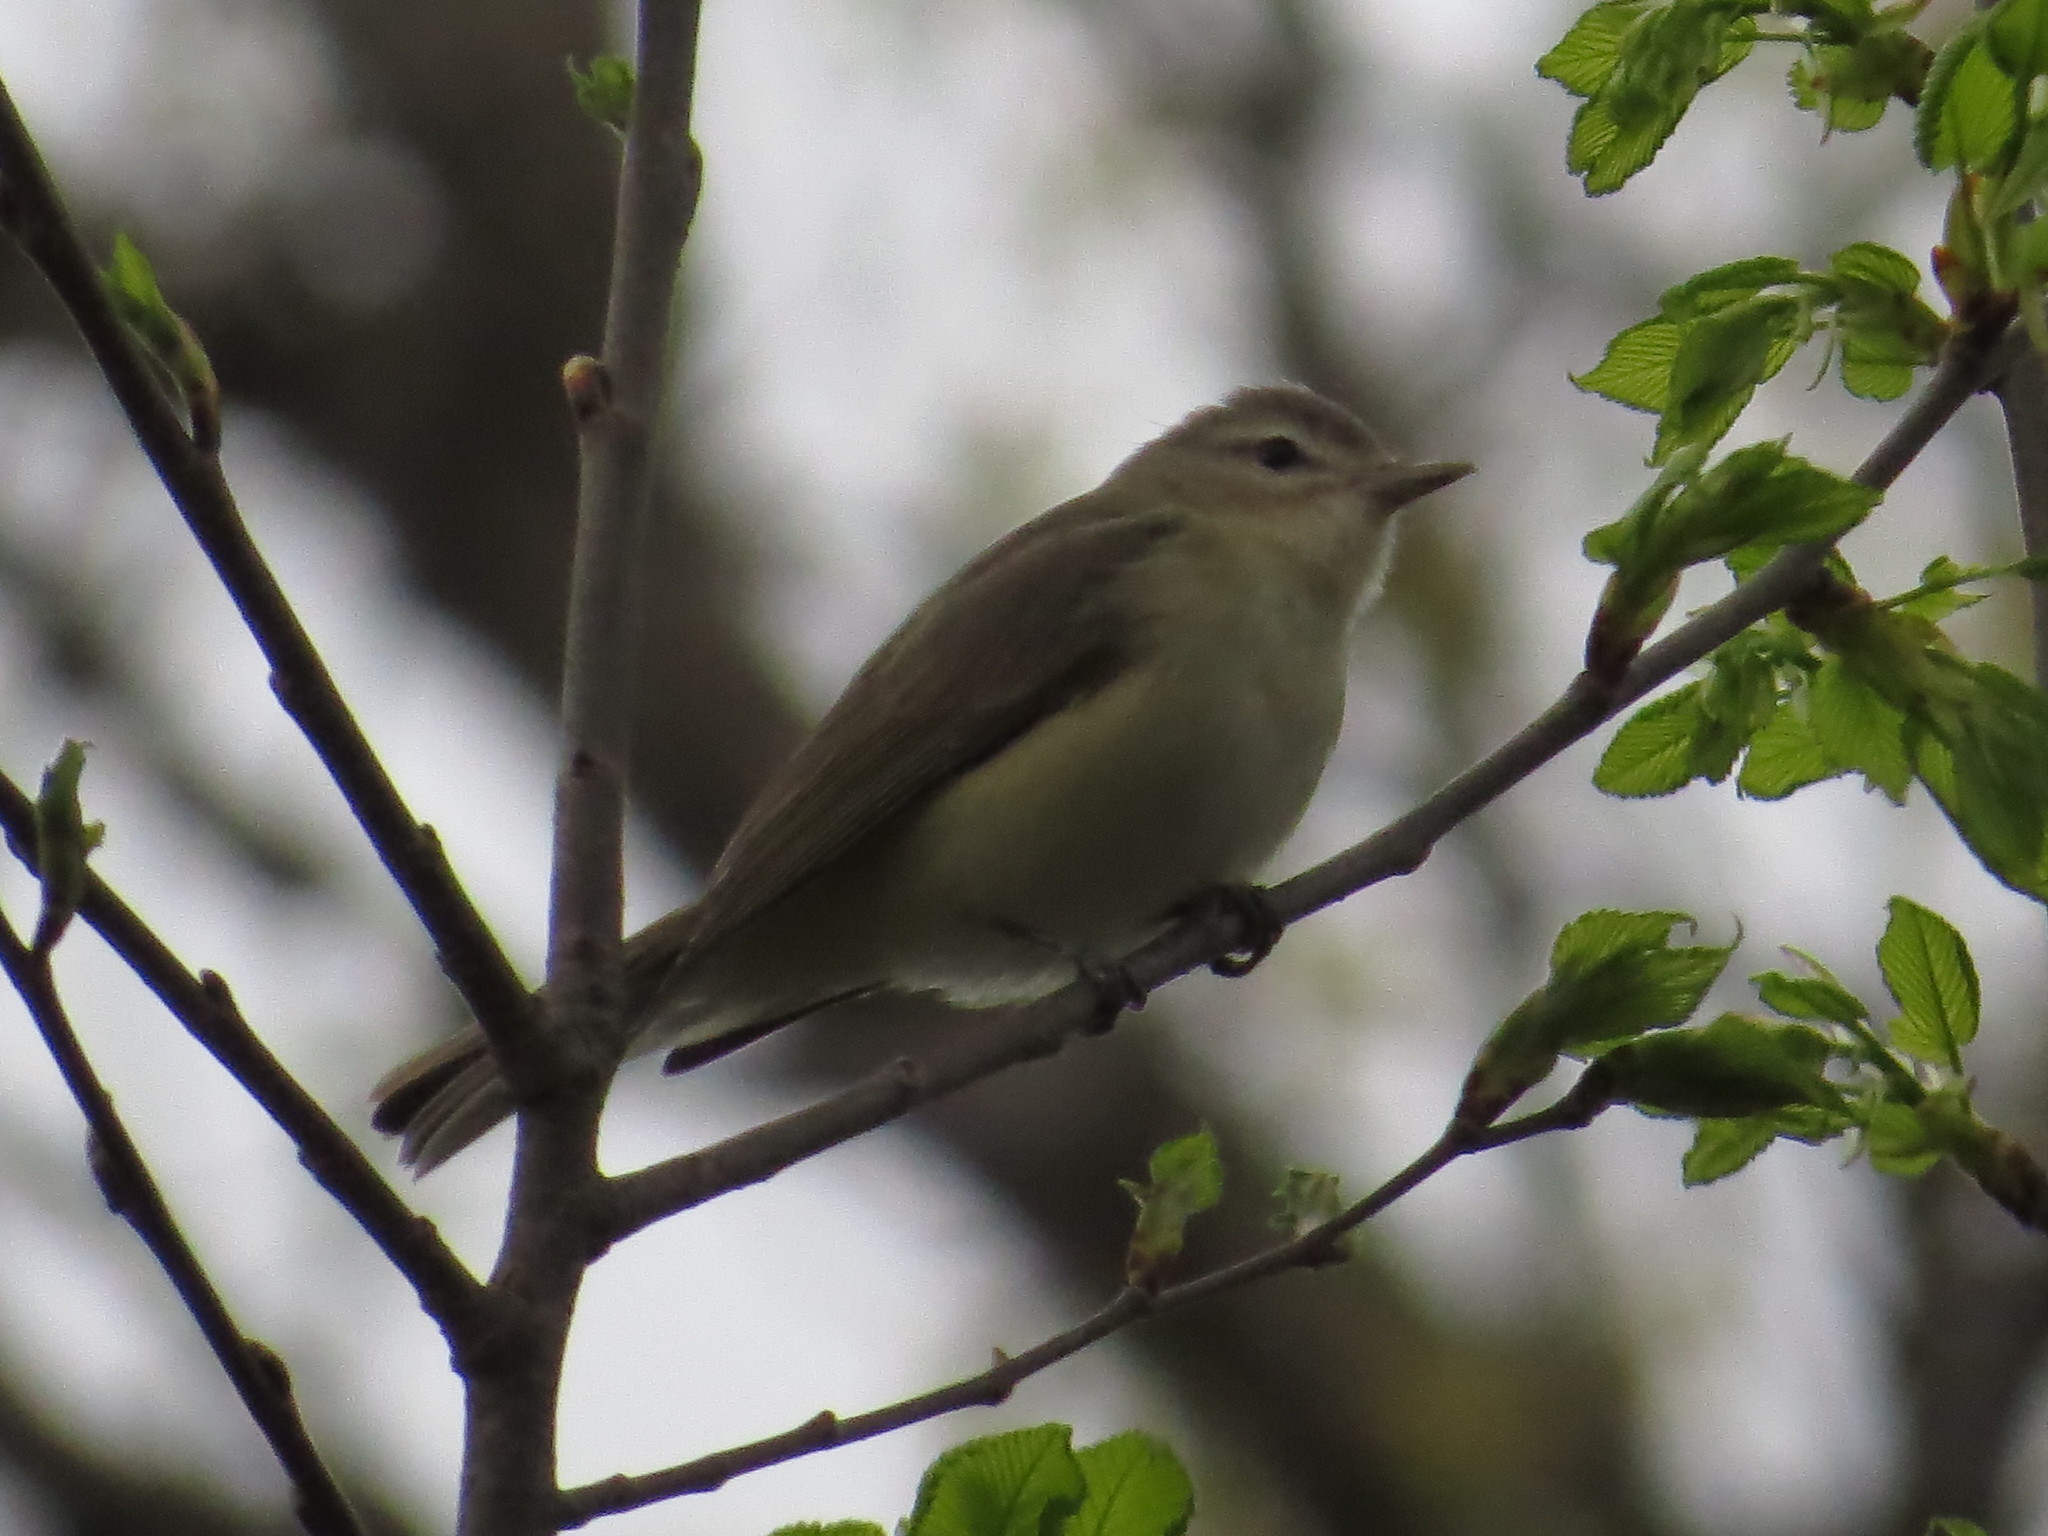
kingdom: Animalia
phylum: Chordata
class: Aves
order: Passeriformes
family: Vireonidae
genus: Vireo
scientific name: Vireo gilvus
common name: Warbling vireo
